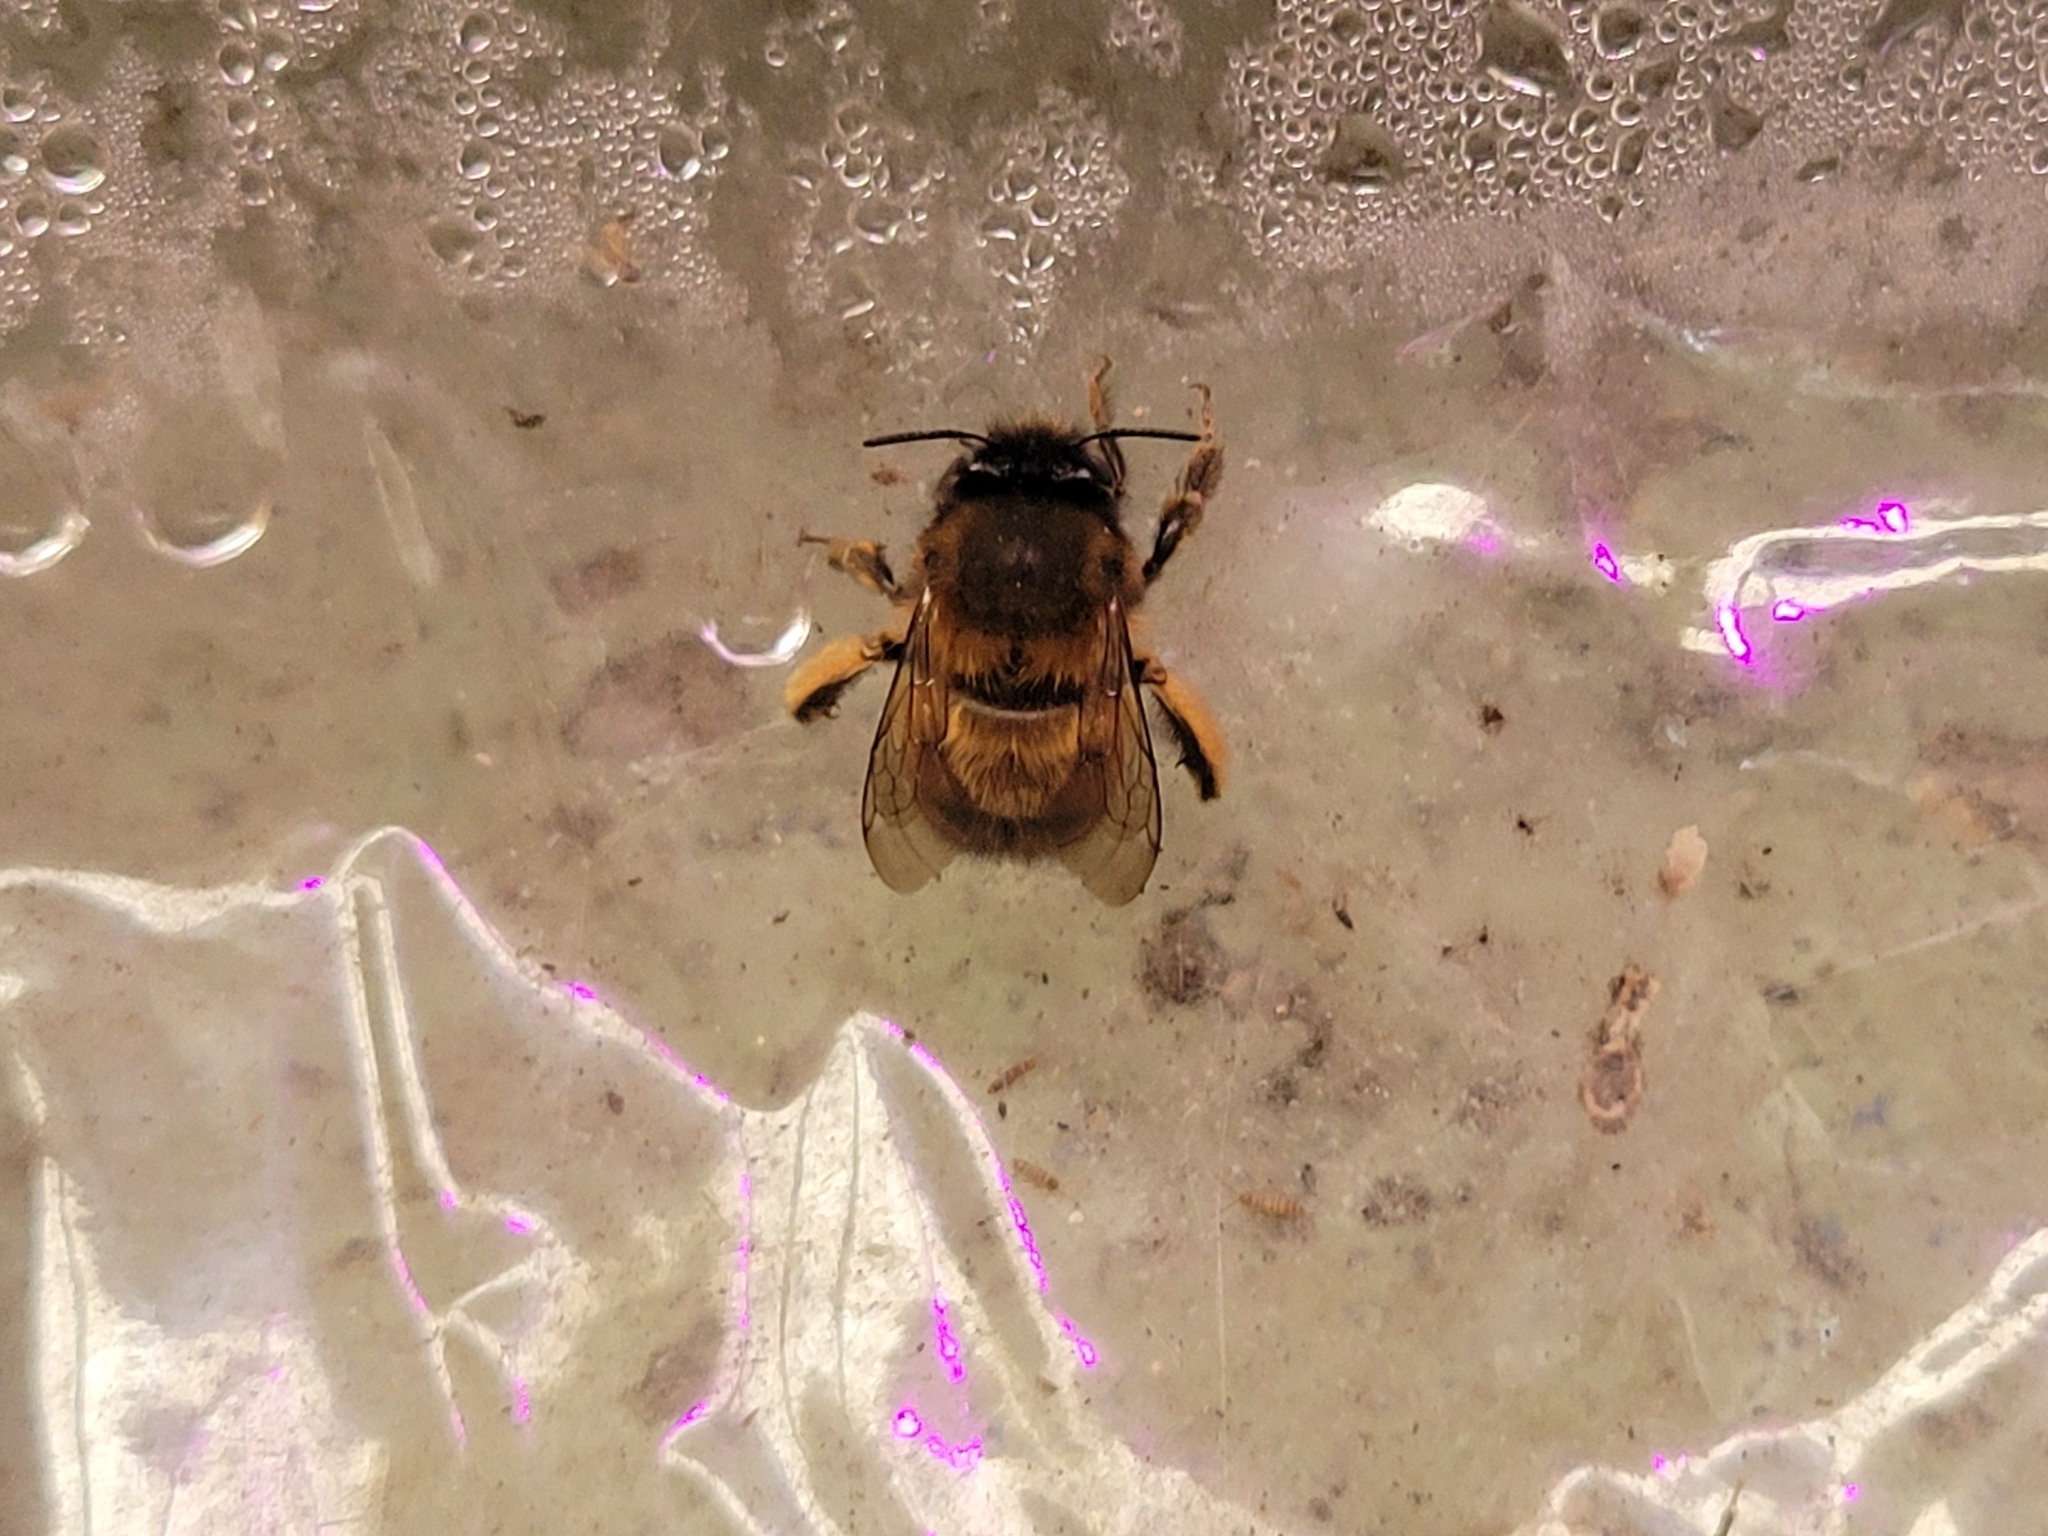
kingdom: Animalia
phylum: Arthropoda
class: Insecta
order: Hymenoptera
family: Apidae
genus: Anthophora
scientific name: Anthophora plumipes
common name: Hairy-footed flower bee
